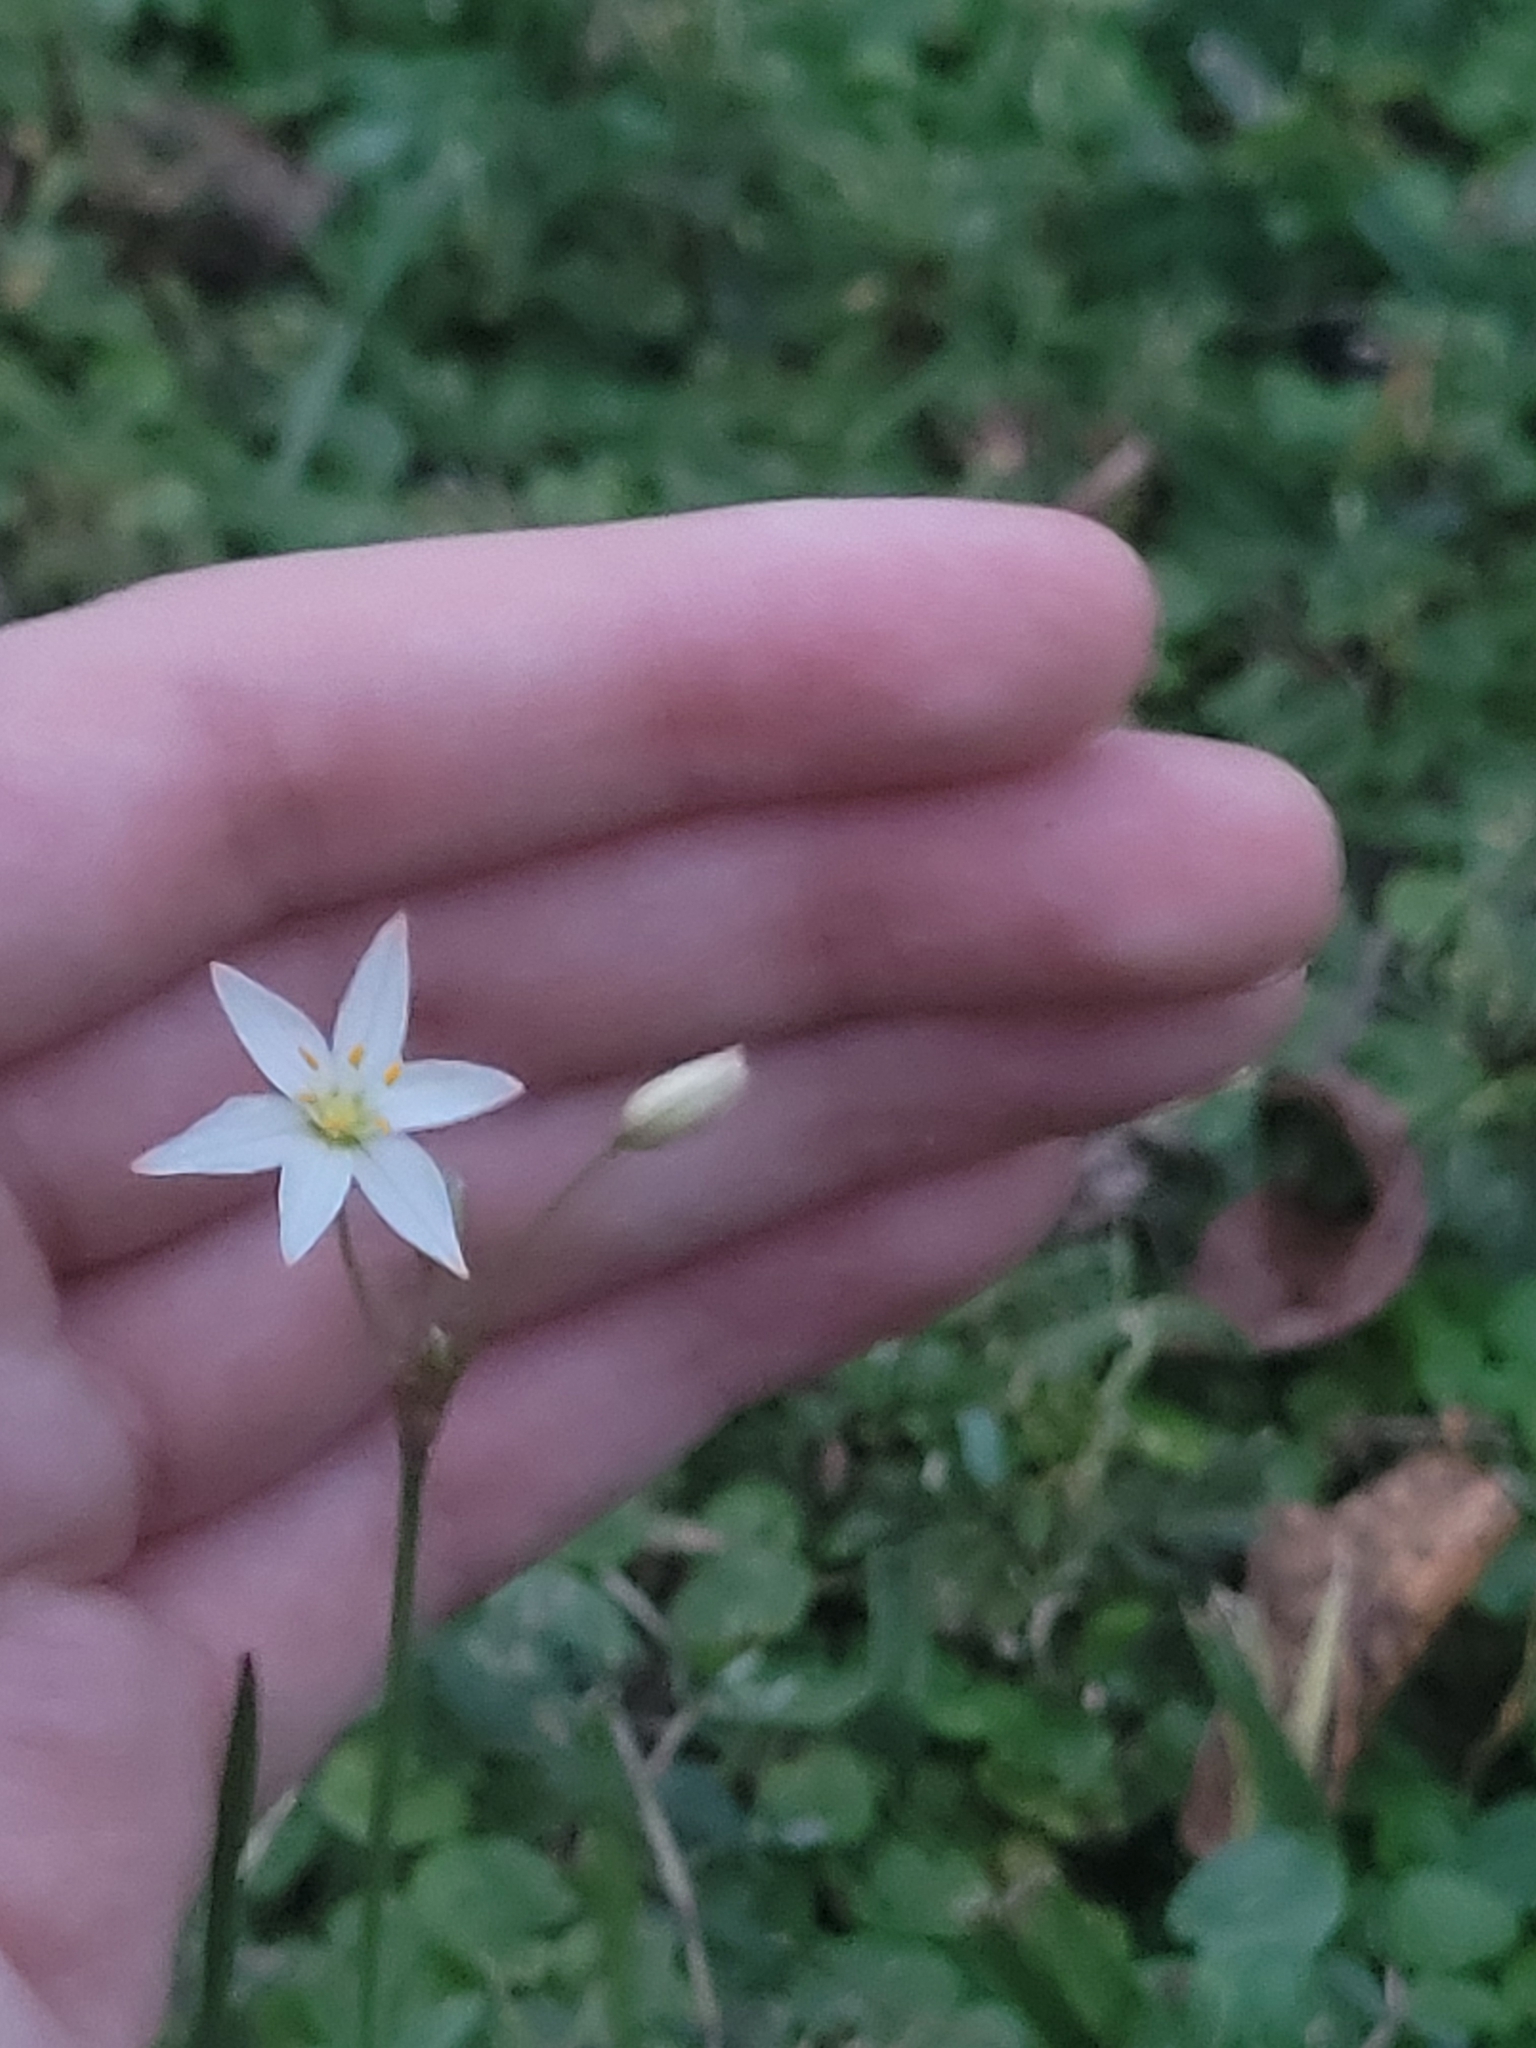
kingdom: Plantae
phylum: Tracheophyta
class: Liliopsida
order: Asparagales
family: Amaryllidaceae
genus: Nothoscordum
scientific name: Nothoscordum bivalve
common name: Crow-poison
